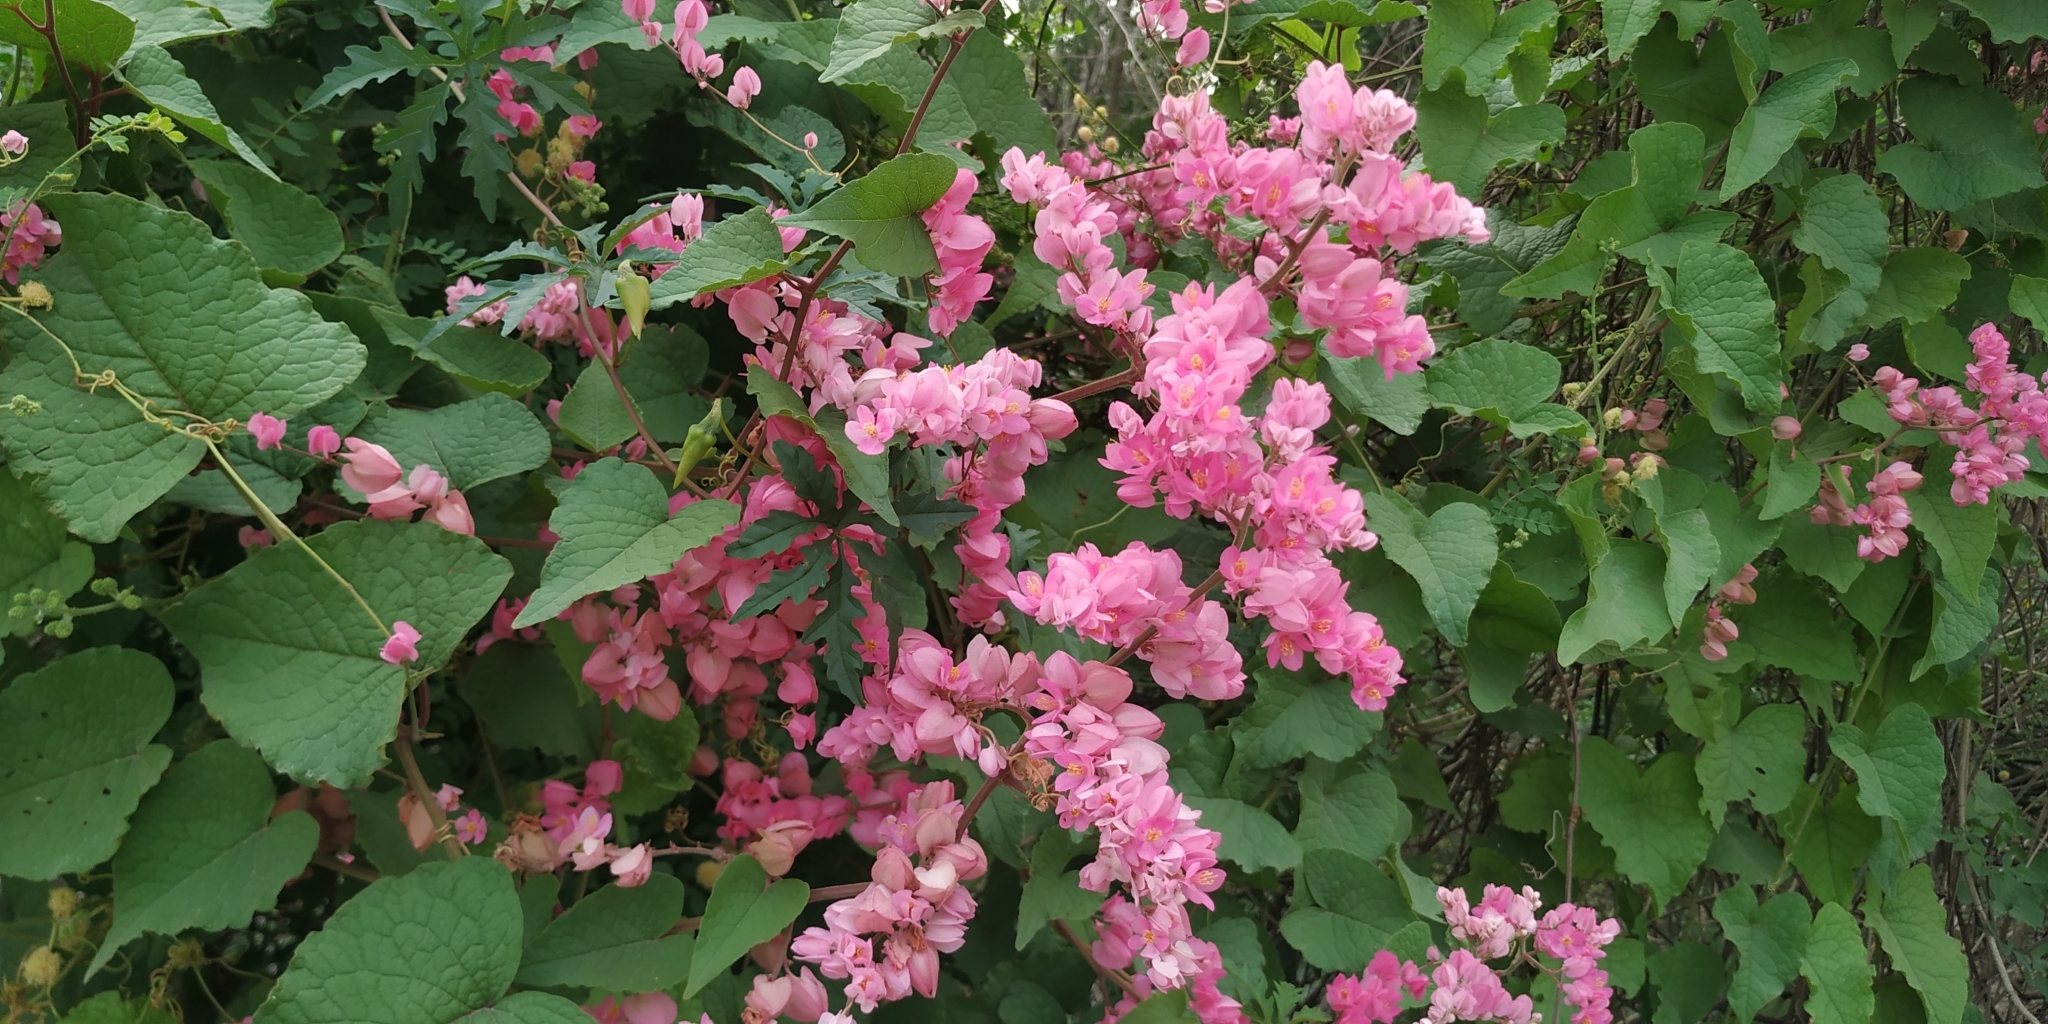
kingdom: Plantae
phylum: Tracheophyta
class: Magnoliopsida
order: Caryophyllales
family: Polygonaceae
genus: Antigonon
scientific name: Antigonon leptopus
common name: Coral vine
